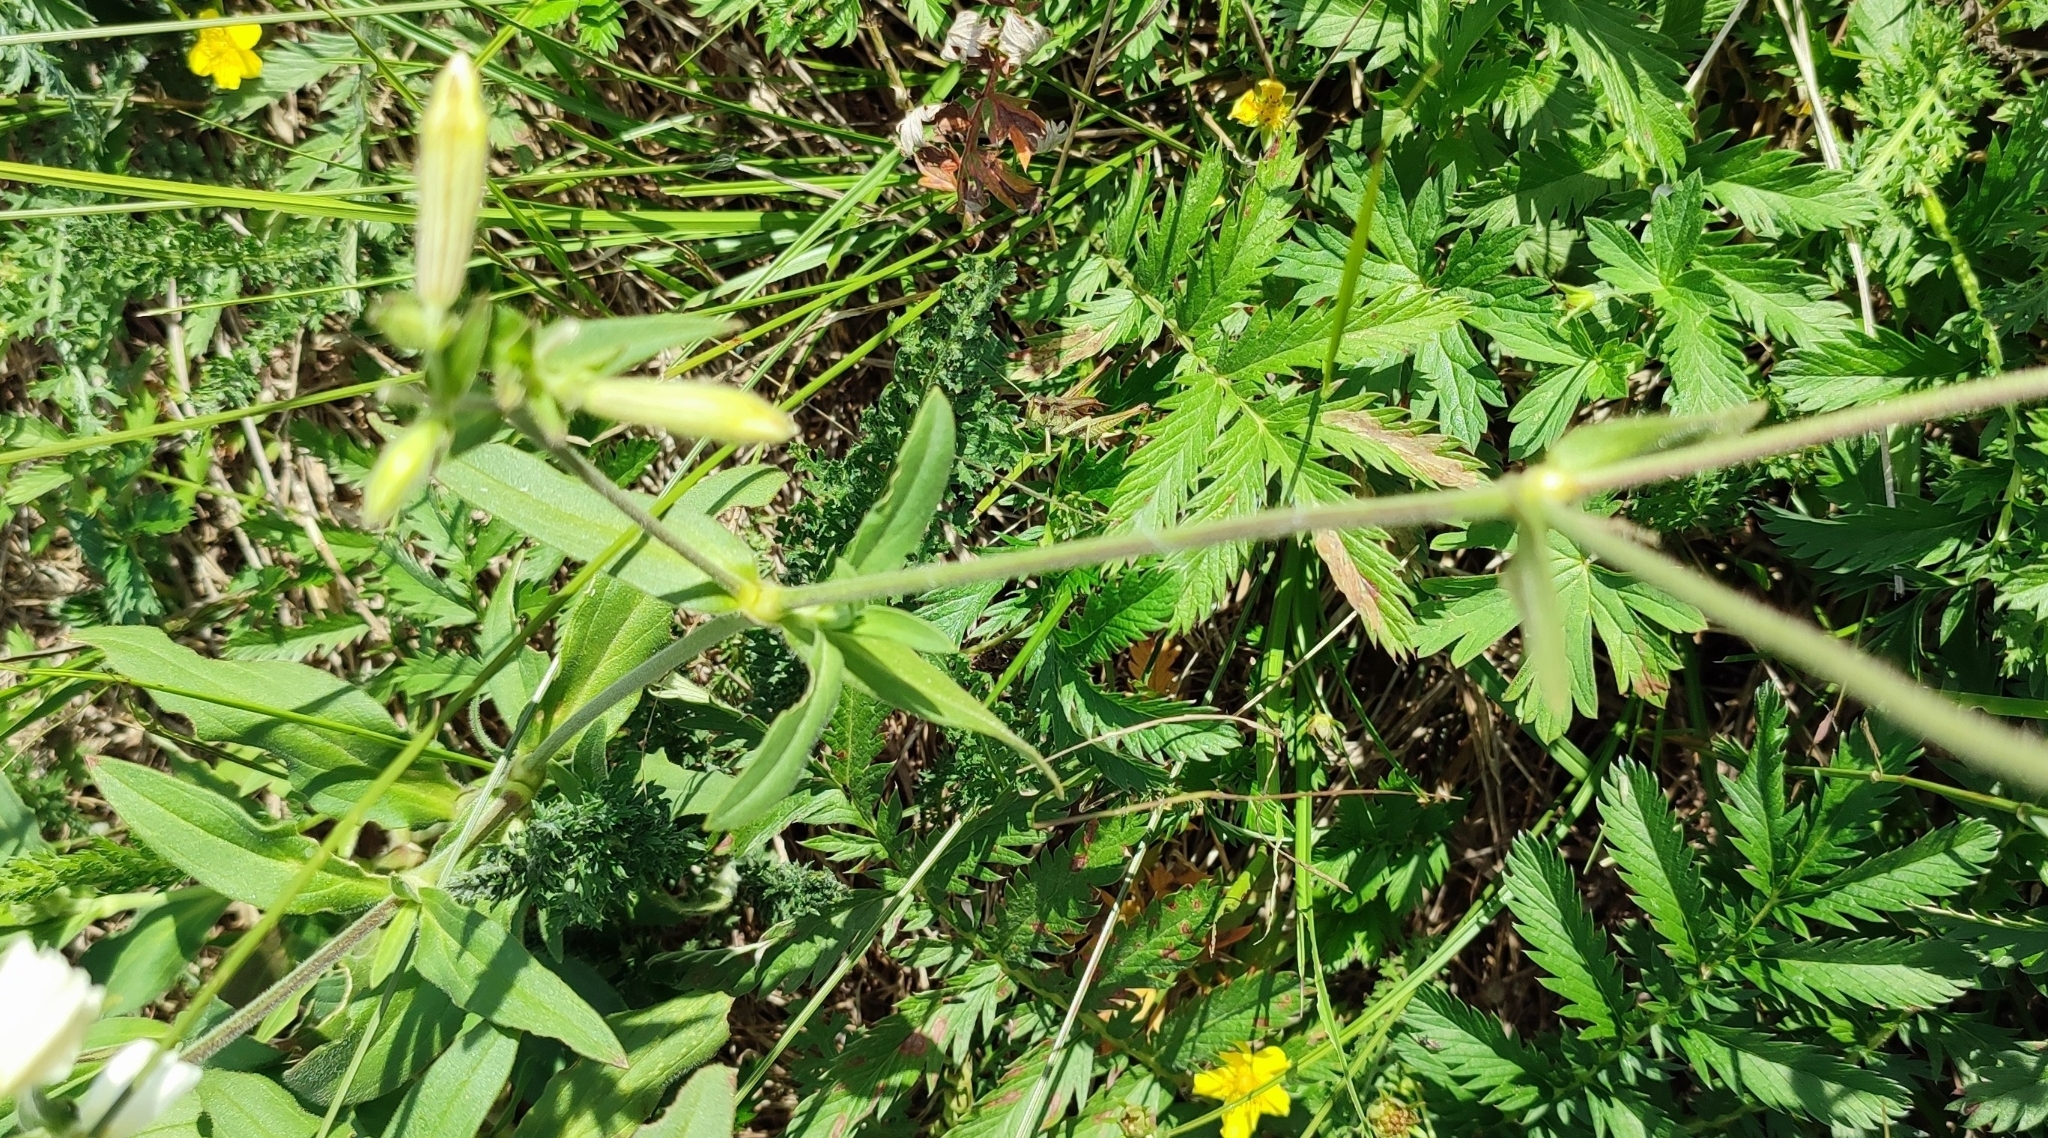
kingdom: Plantae
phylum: Tracheophyta
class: Magnoliopsida
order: Caryophyllales
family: Caryophyllaceae
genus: Silene
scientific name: Silene latifolia
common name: White campion
